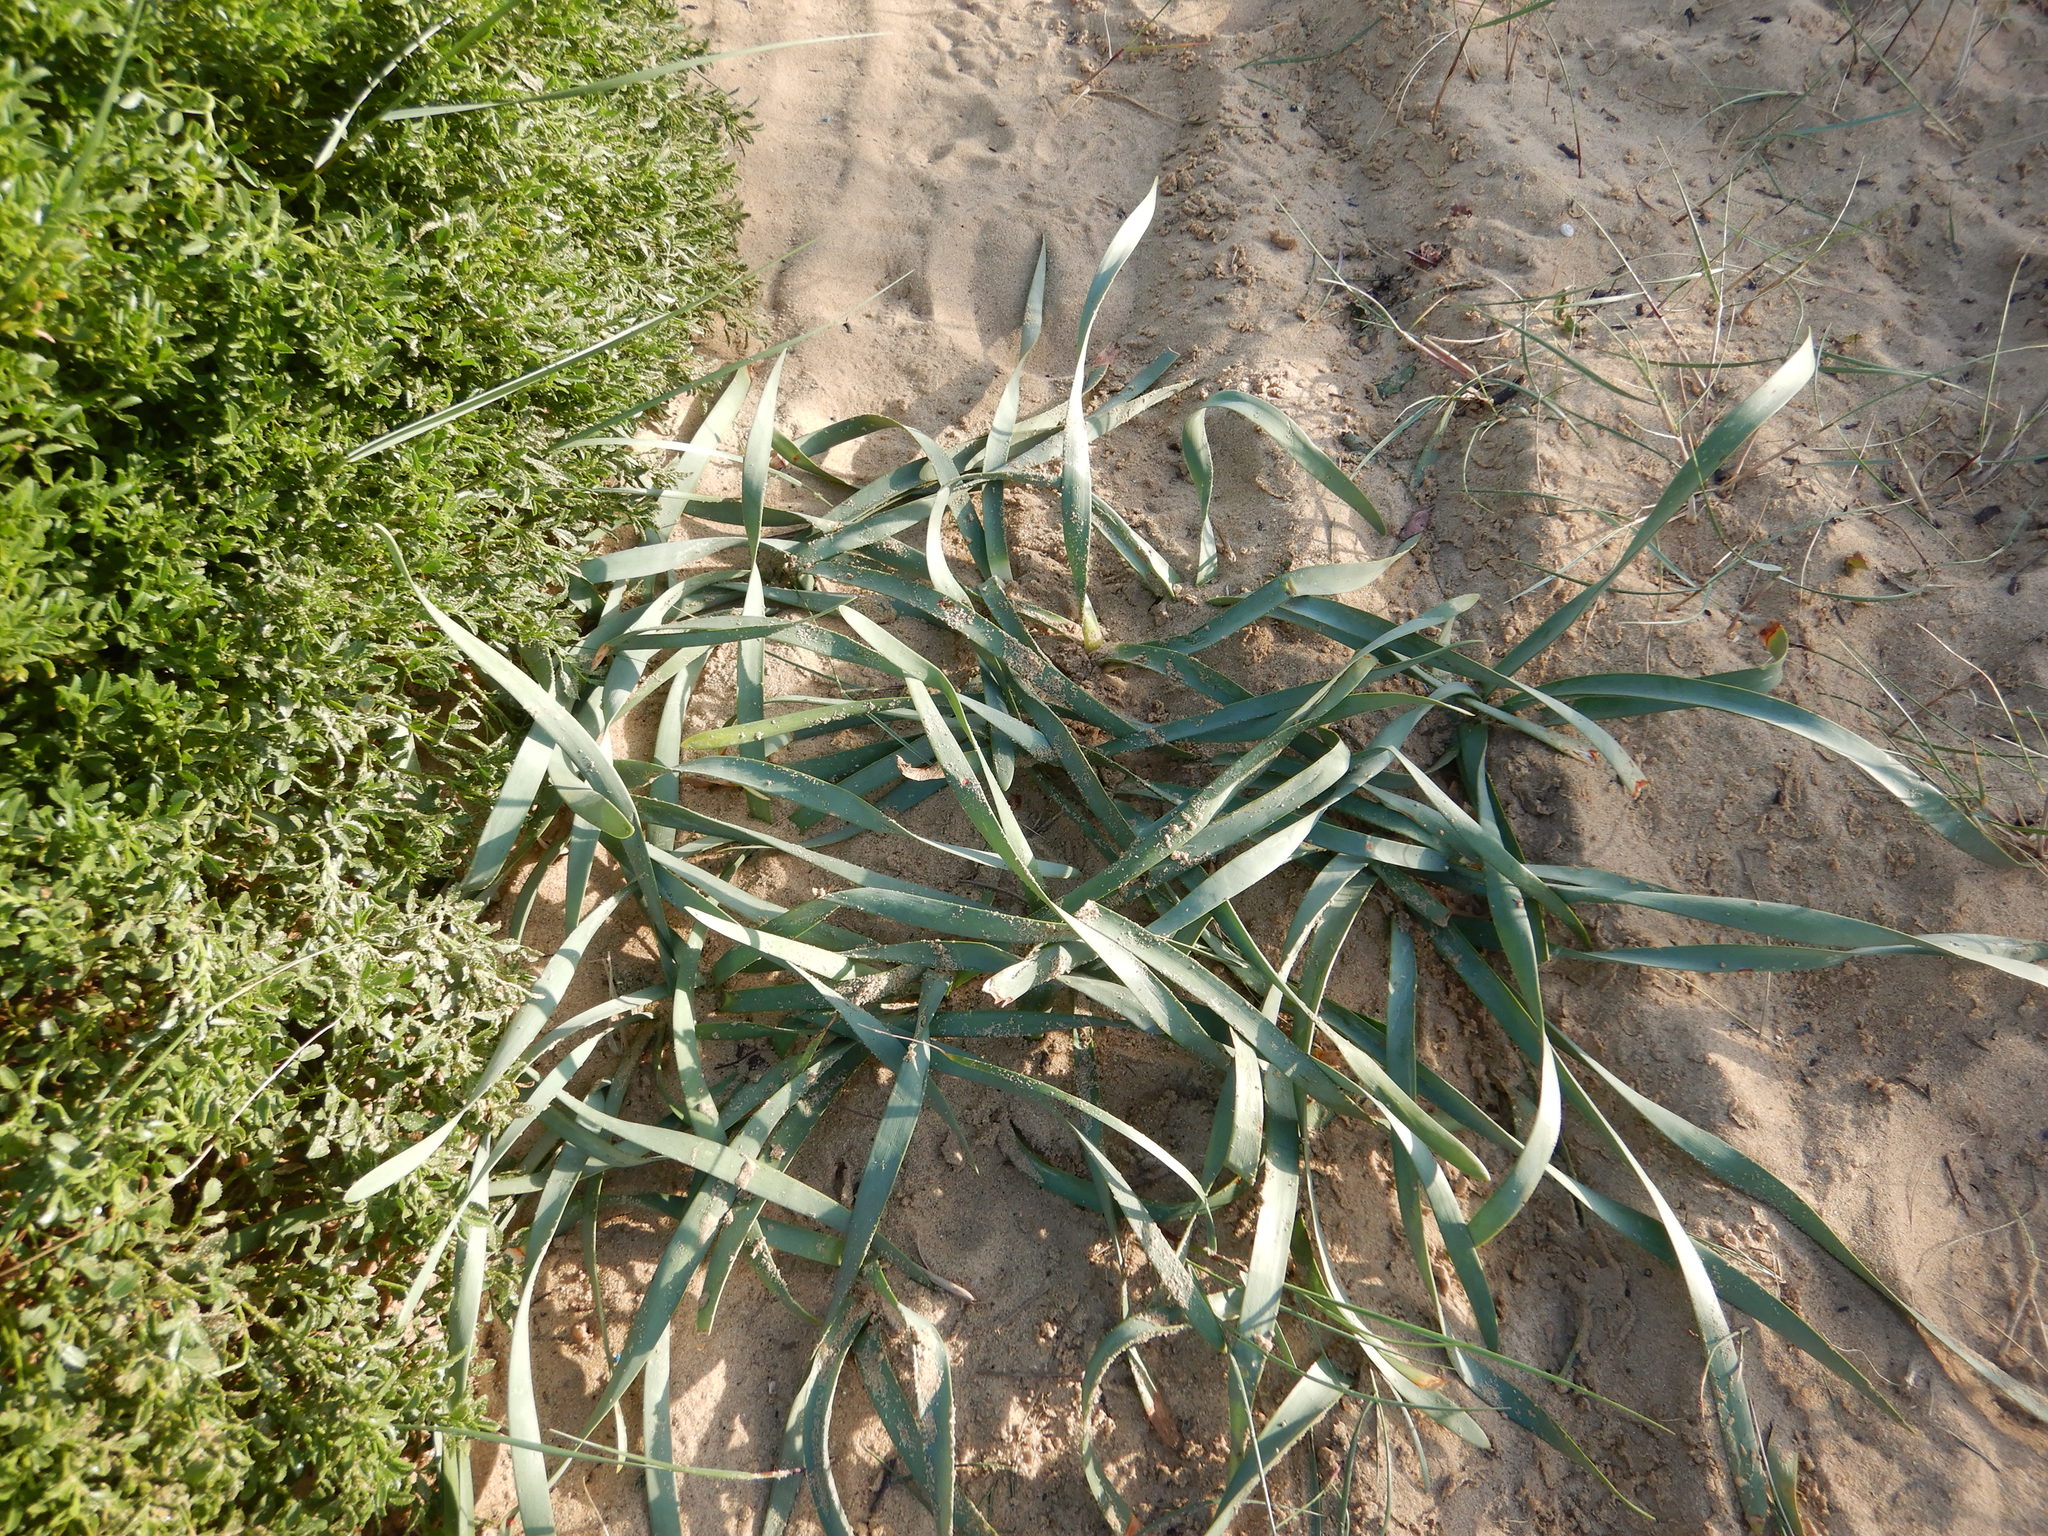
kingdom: Plantae
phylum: Tracheophyta
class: Liliopsida
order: Asparagales
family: Amaryllidaceae
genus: Pancratium
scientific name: Pancratium maritimum
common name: Sea-daffodil
